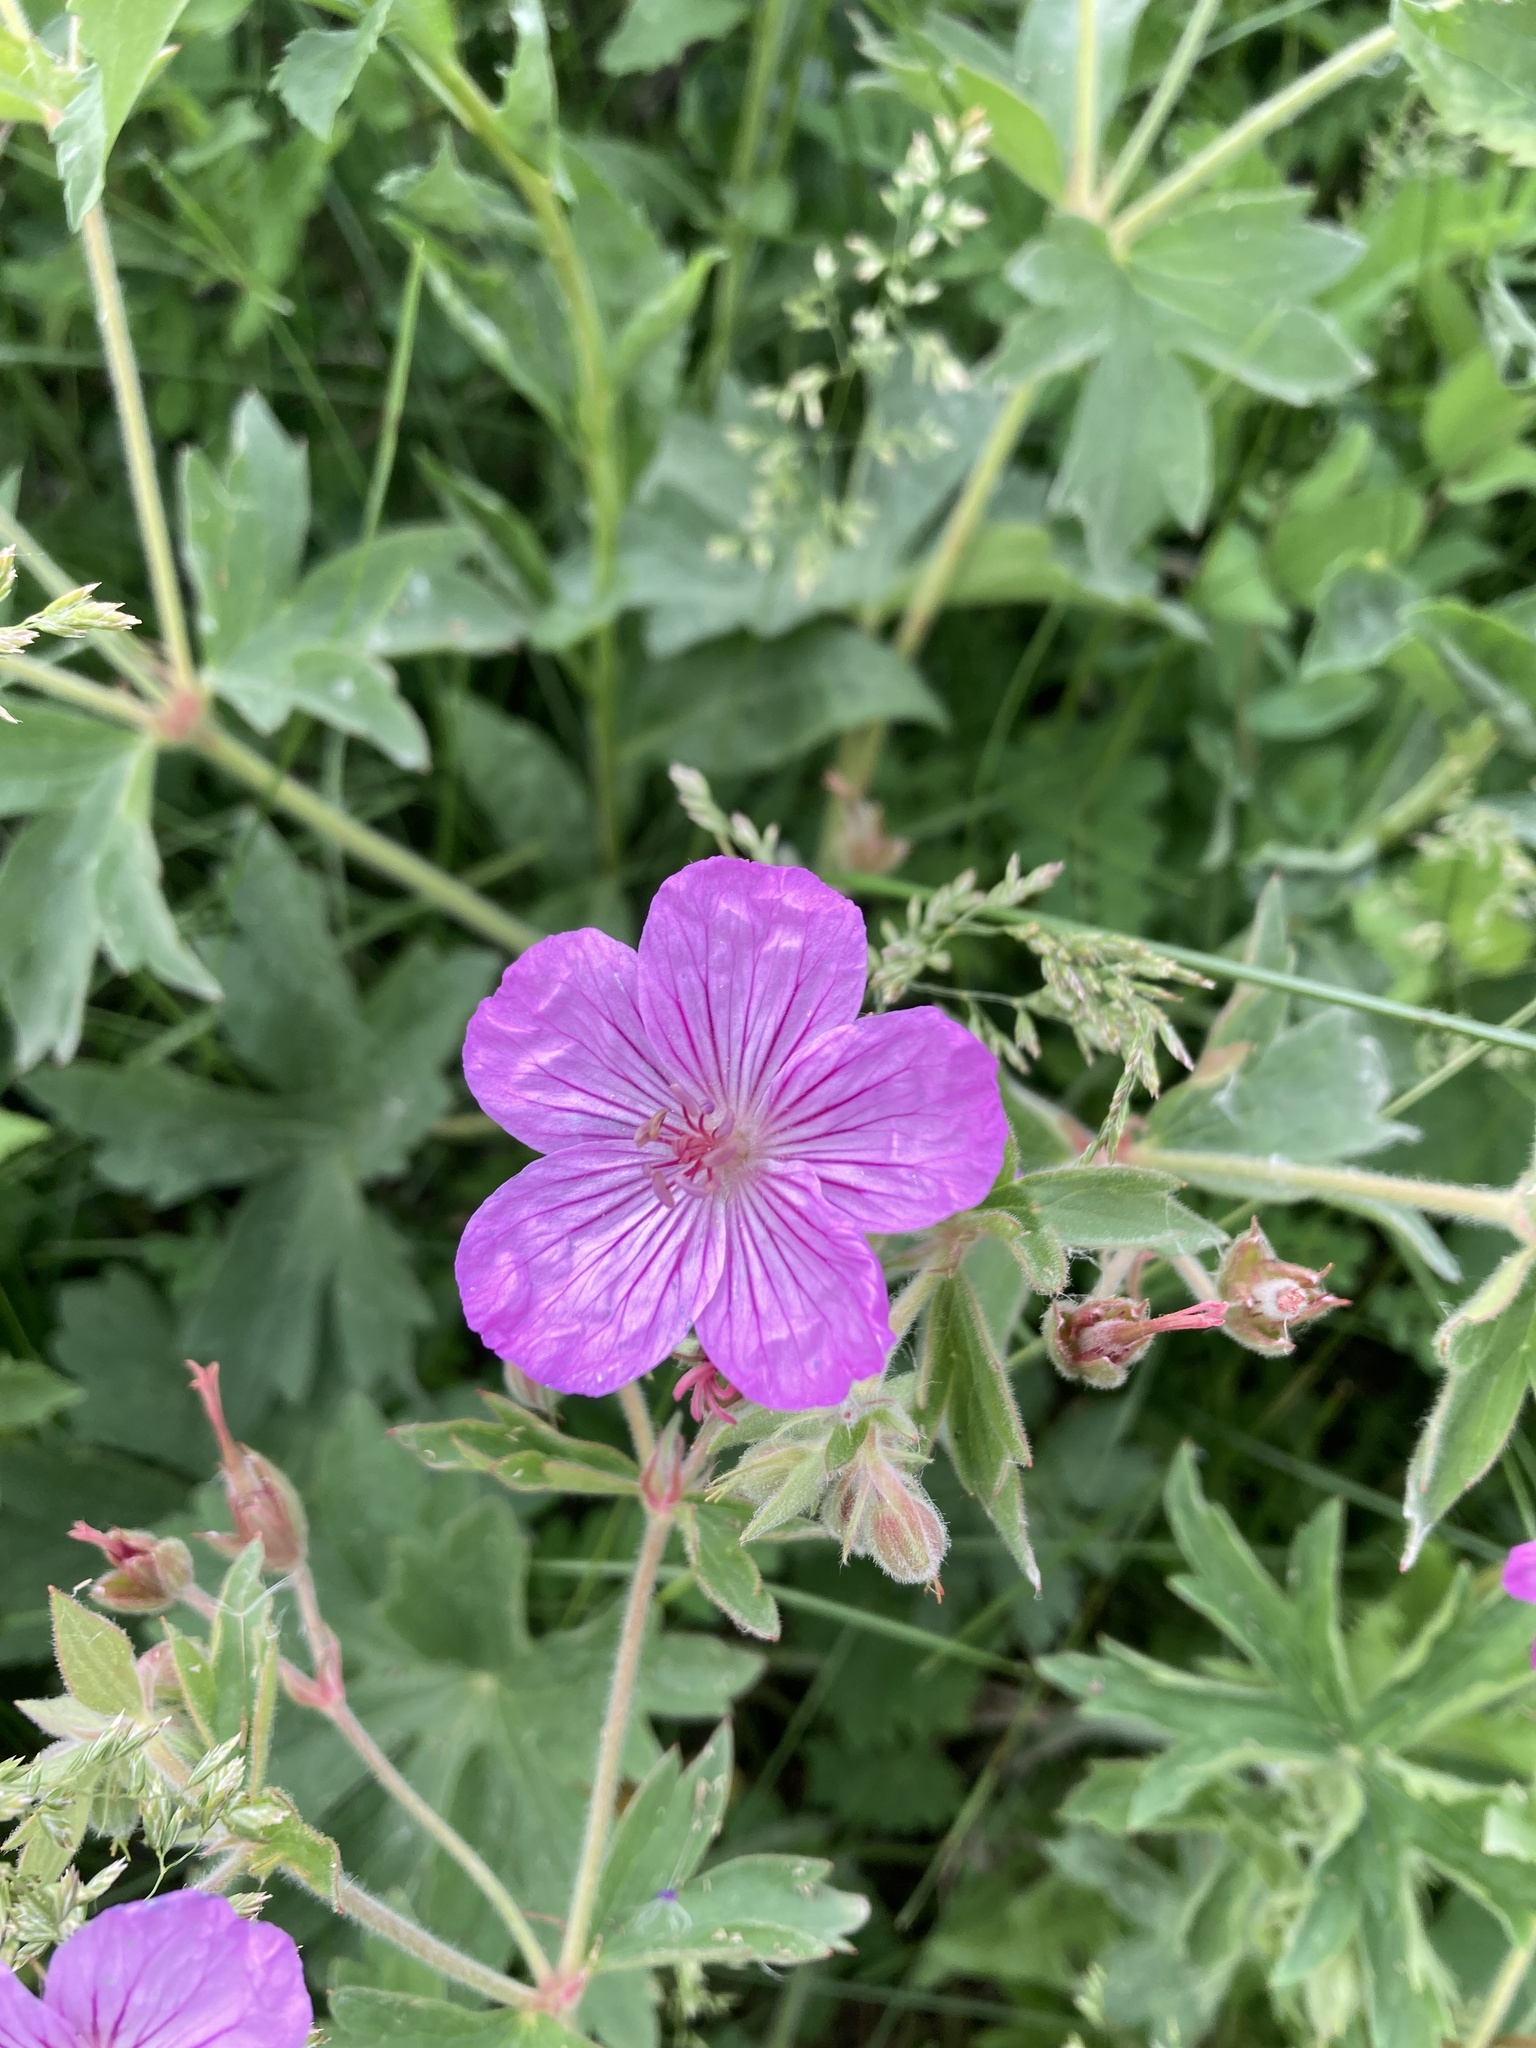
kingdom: Plantae
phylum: Tracheophyta
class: Magnoliopsida
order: Geraniales
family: Geraniaceae
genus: Geranium
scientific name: Geranium viscosissimum
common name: Purple geranium
